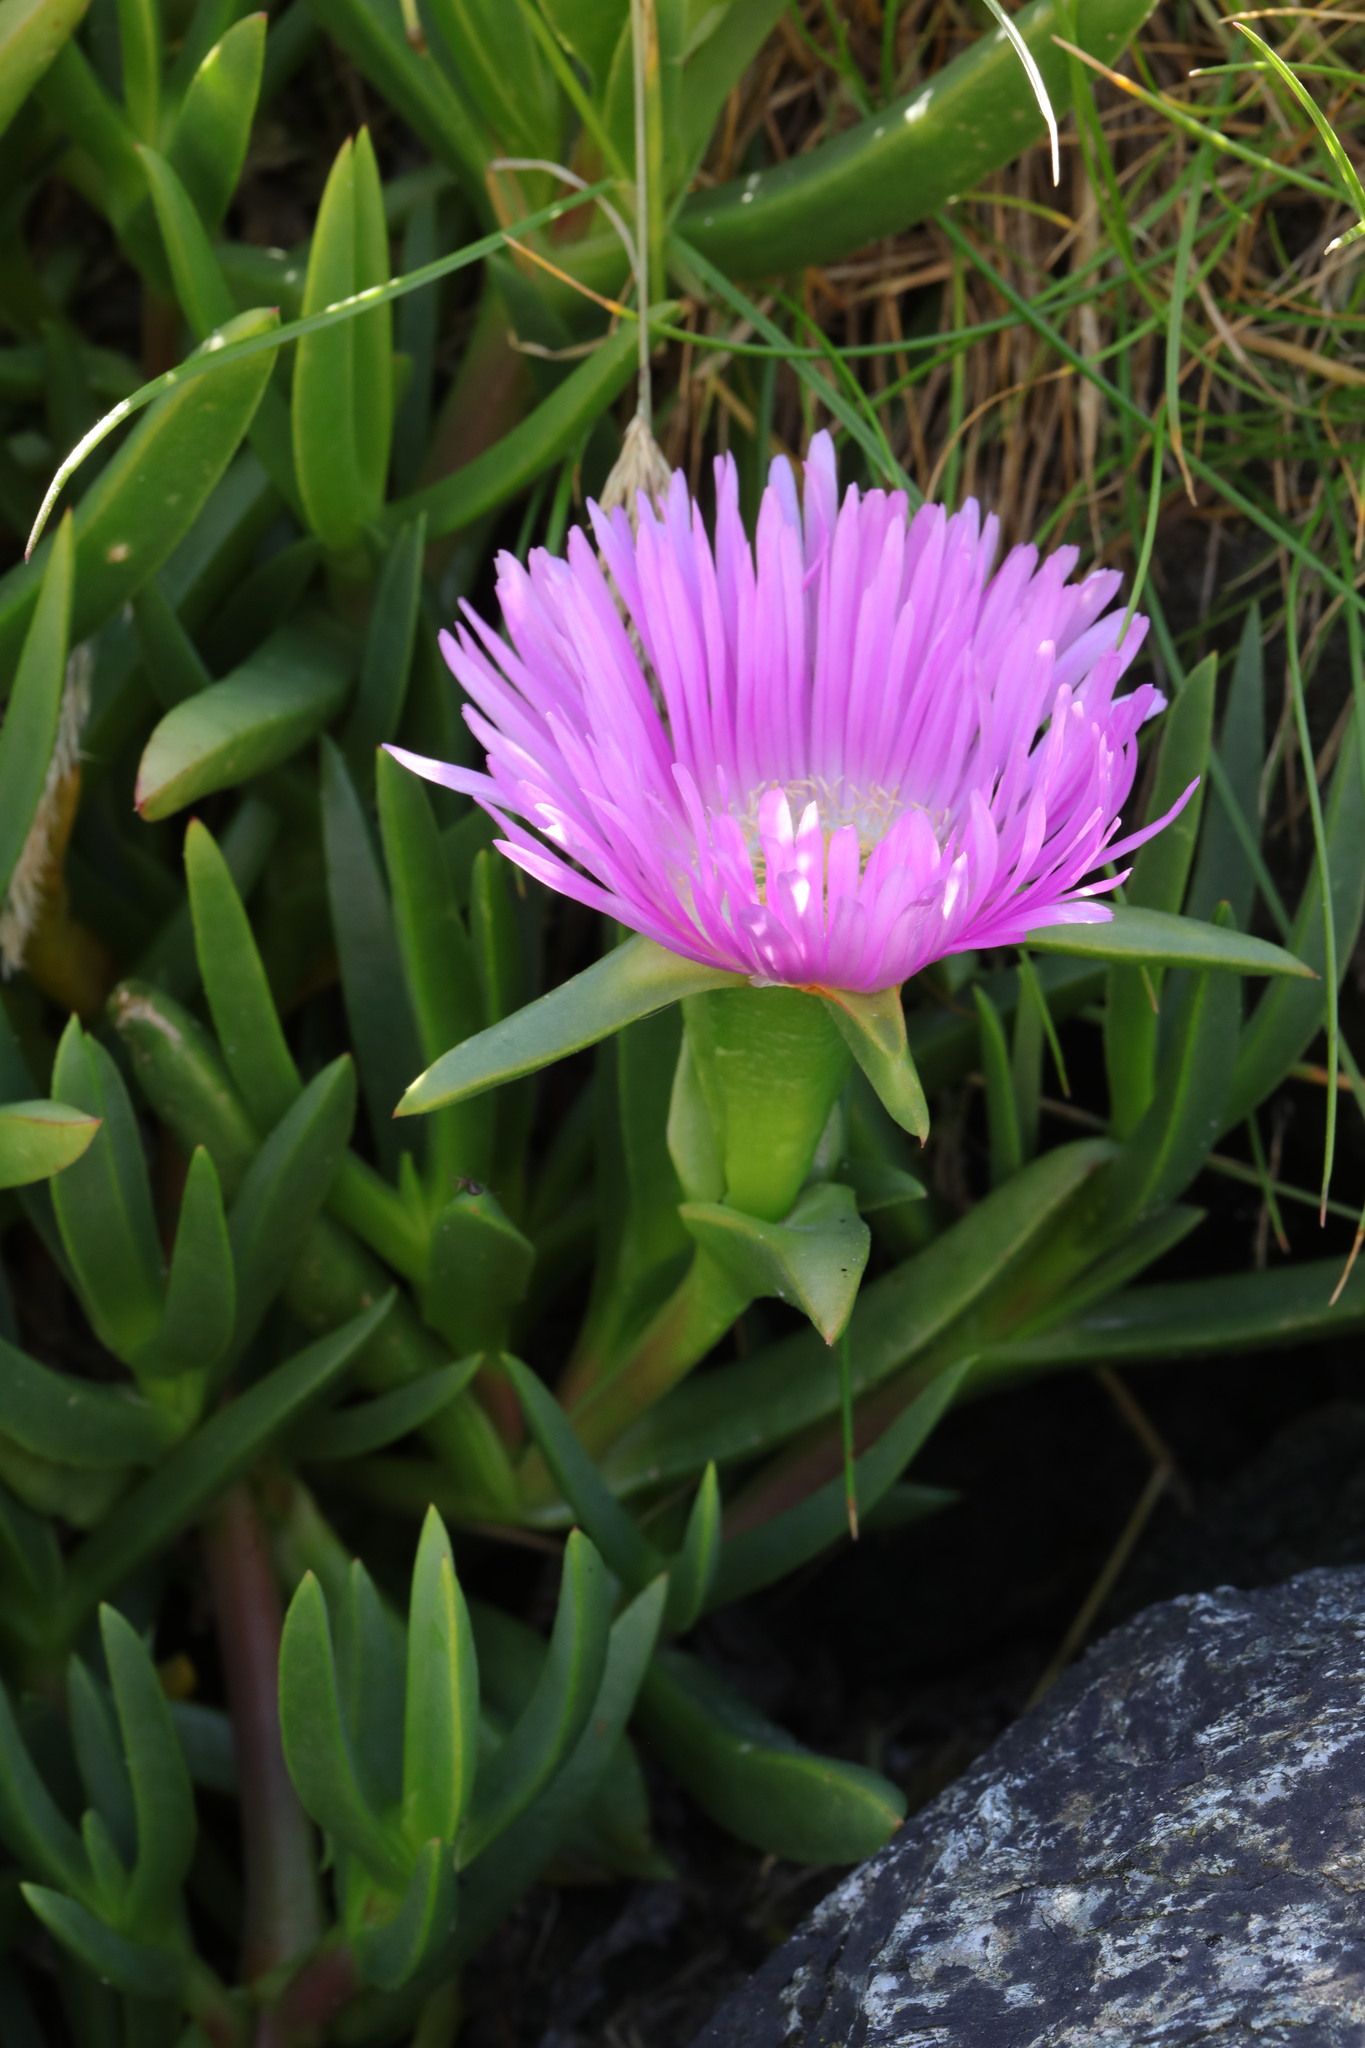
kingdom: Plantae
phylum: Tracheophyta
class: Magnoliopsida
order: Caryophyllales
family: Aizoaceae
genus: Carpobrotus
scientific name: Carpobrotus edulis
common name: Hottentot-fig
